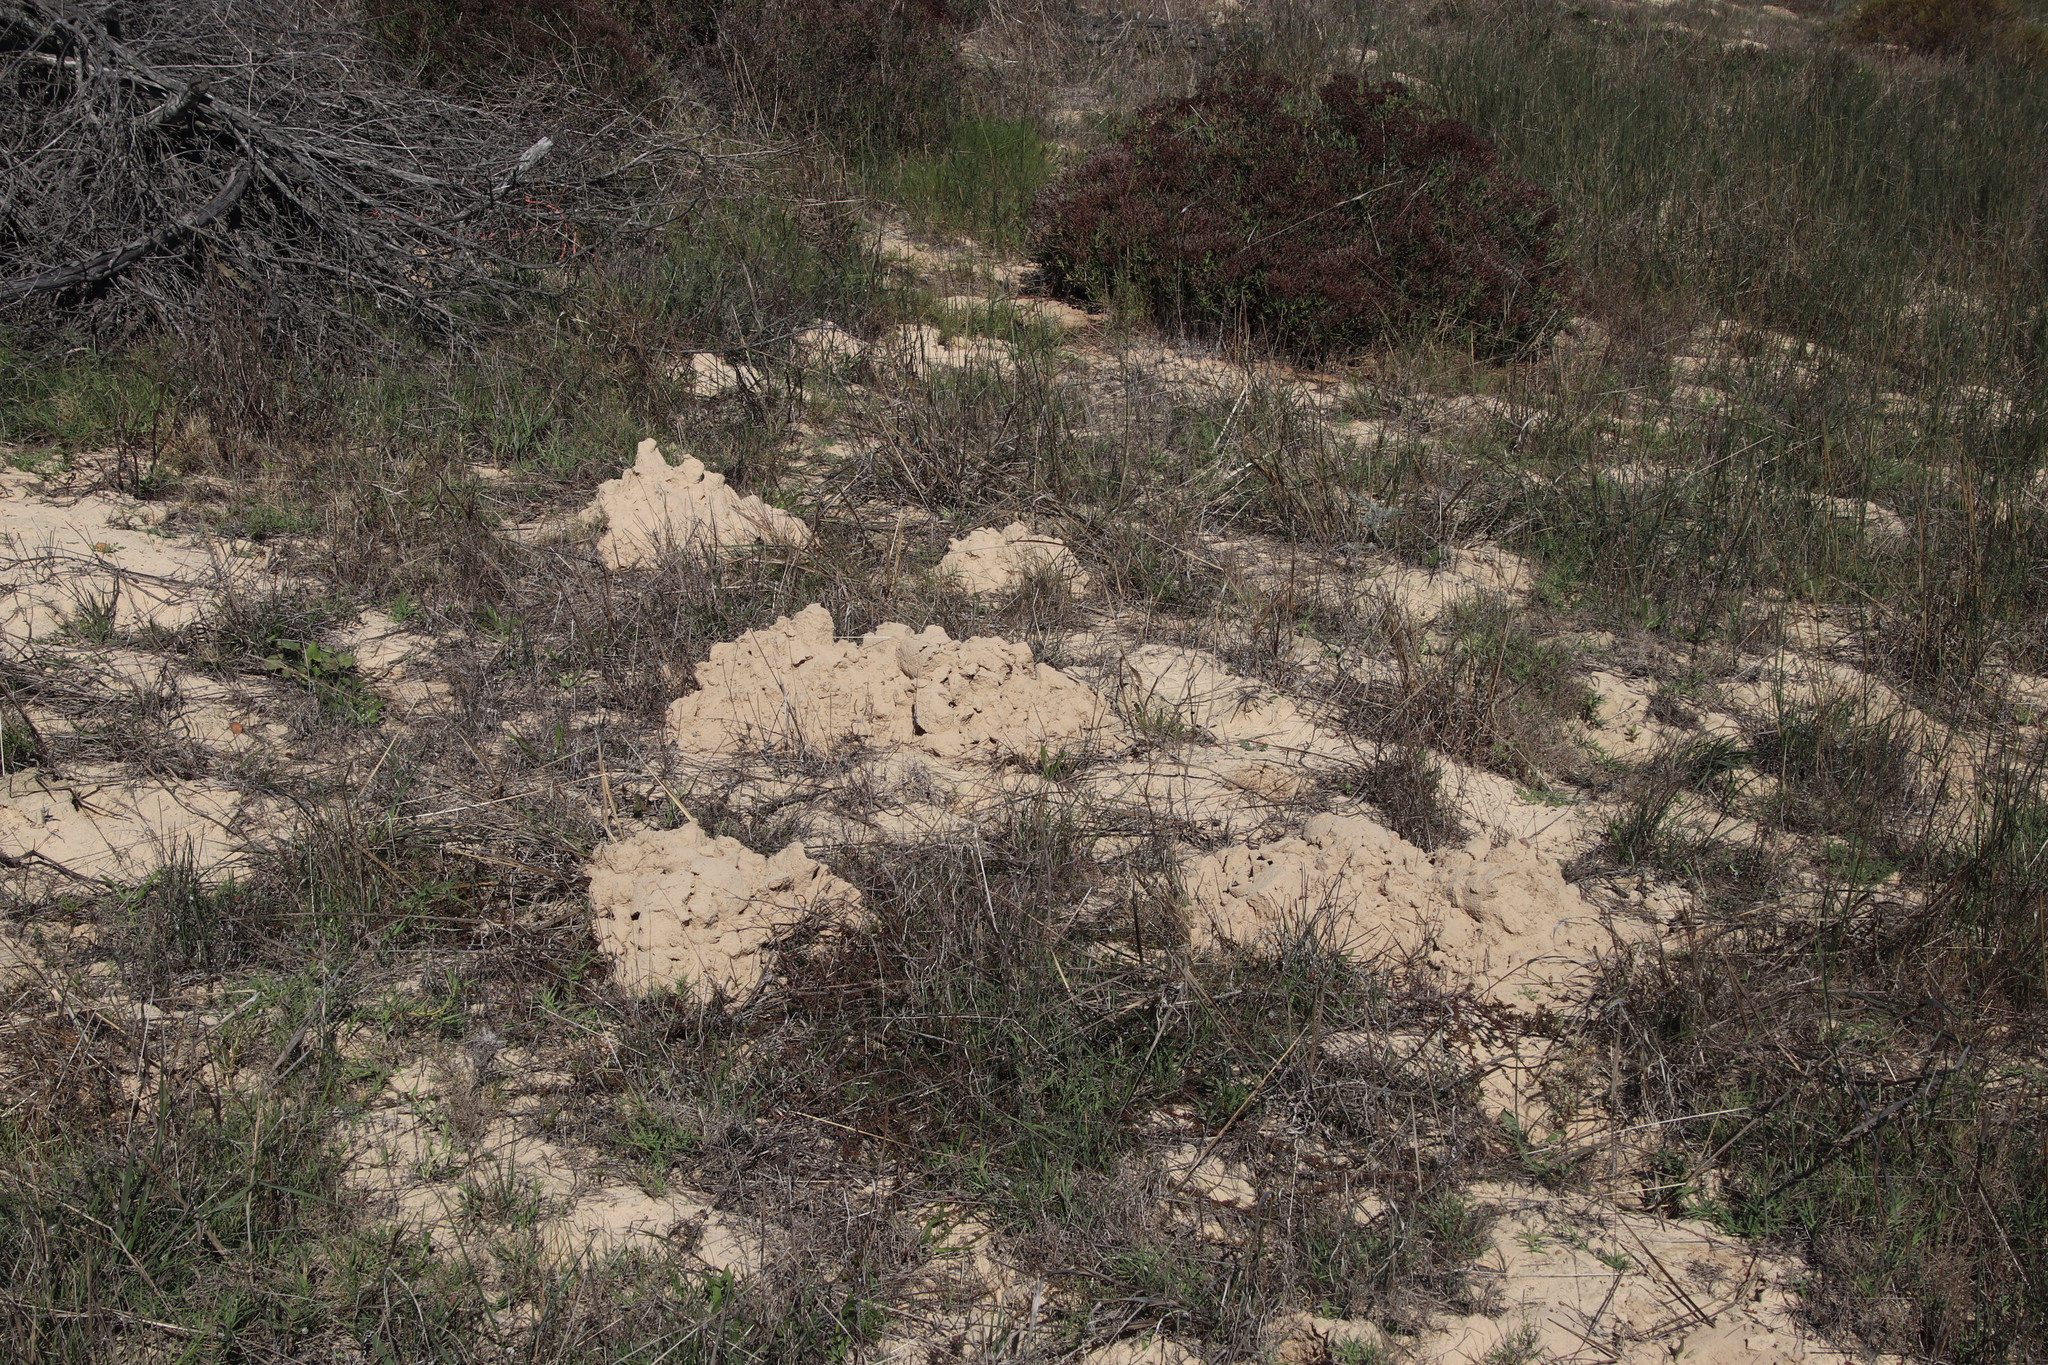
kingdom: Animalia
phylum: Chordata
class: Mammalia
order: Rodentia
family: Bathyergidae
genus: Bathyergus
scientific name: Bathyergus suillus
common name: Cape dune mole rat
